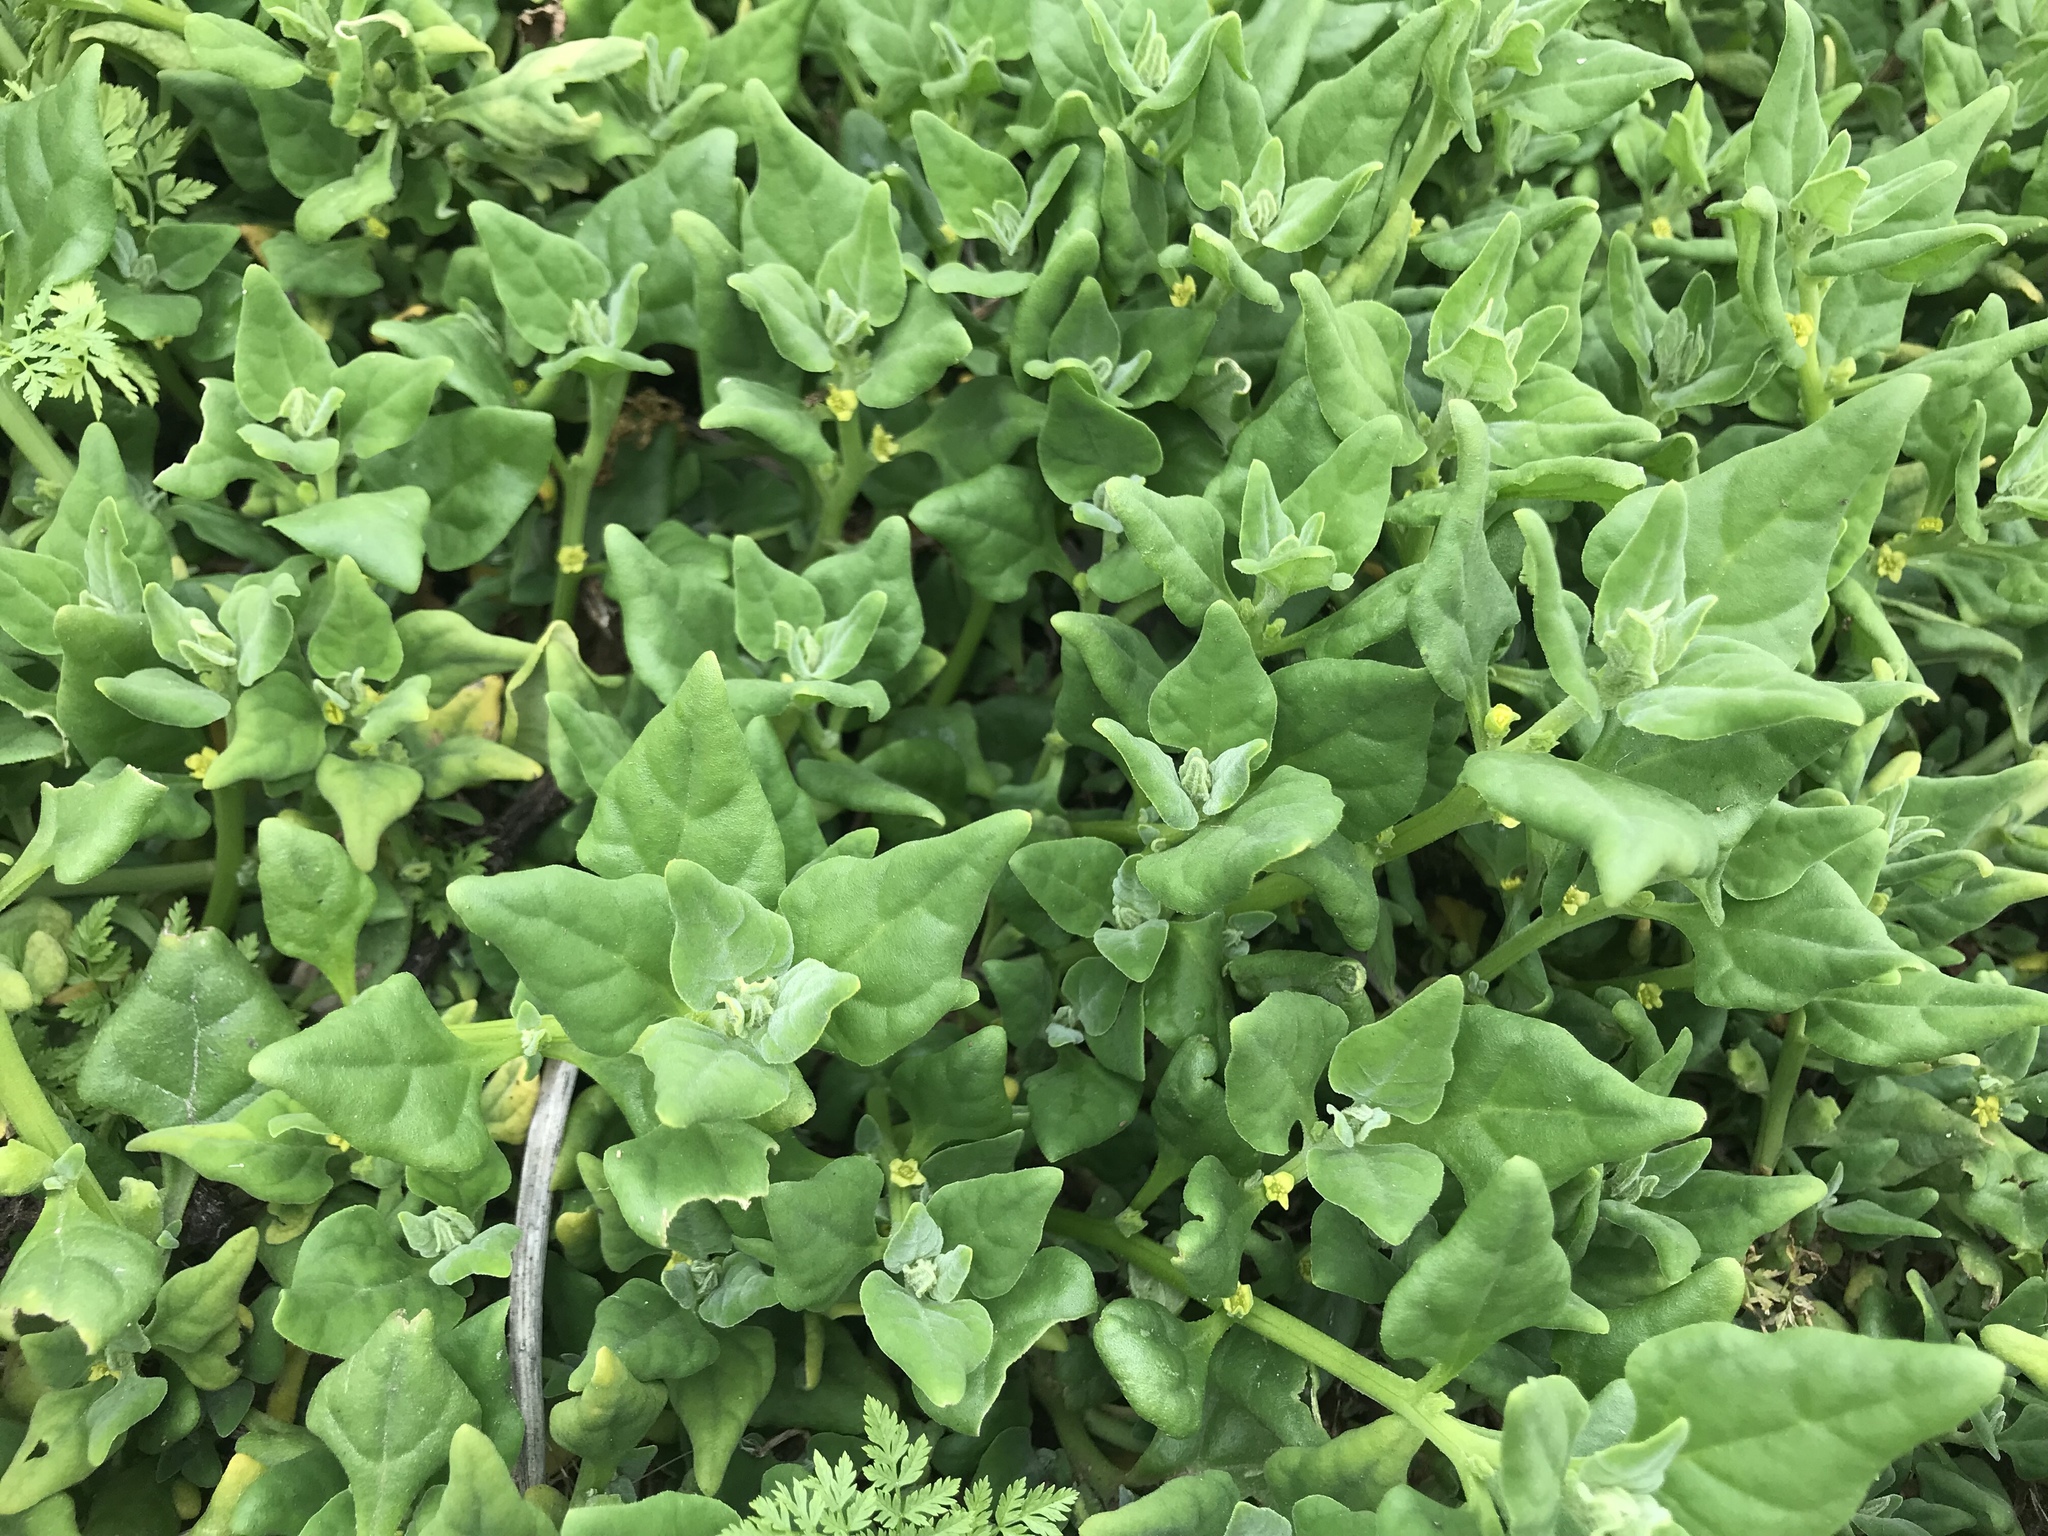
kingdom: Plantae
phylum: Tracheophyta
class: Magnoliopsida
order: Caryophyllales
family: Aizoaceae
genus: Tetragonia
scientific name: Tetragonia tetragonoides
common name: New zealand-spinach
